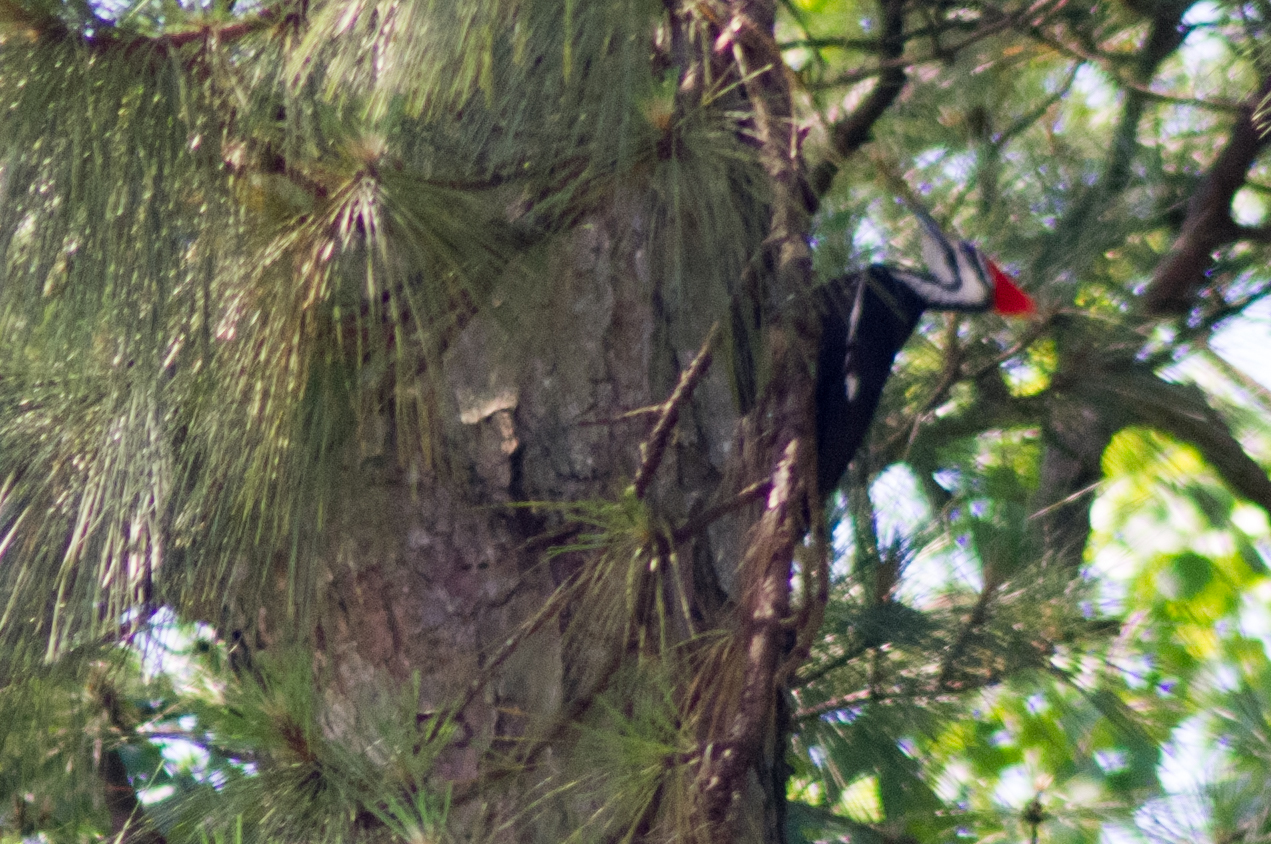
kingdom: Animalia
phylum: Chordata
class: Aves
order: Piciformes
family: Picidae
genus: Dryocopus
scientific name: Dryocopus pileatus
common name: Pileated woodpecker
